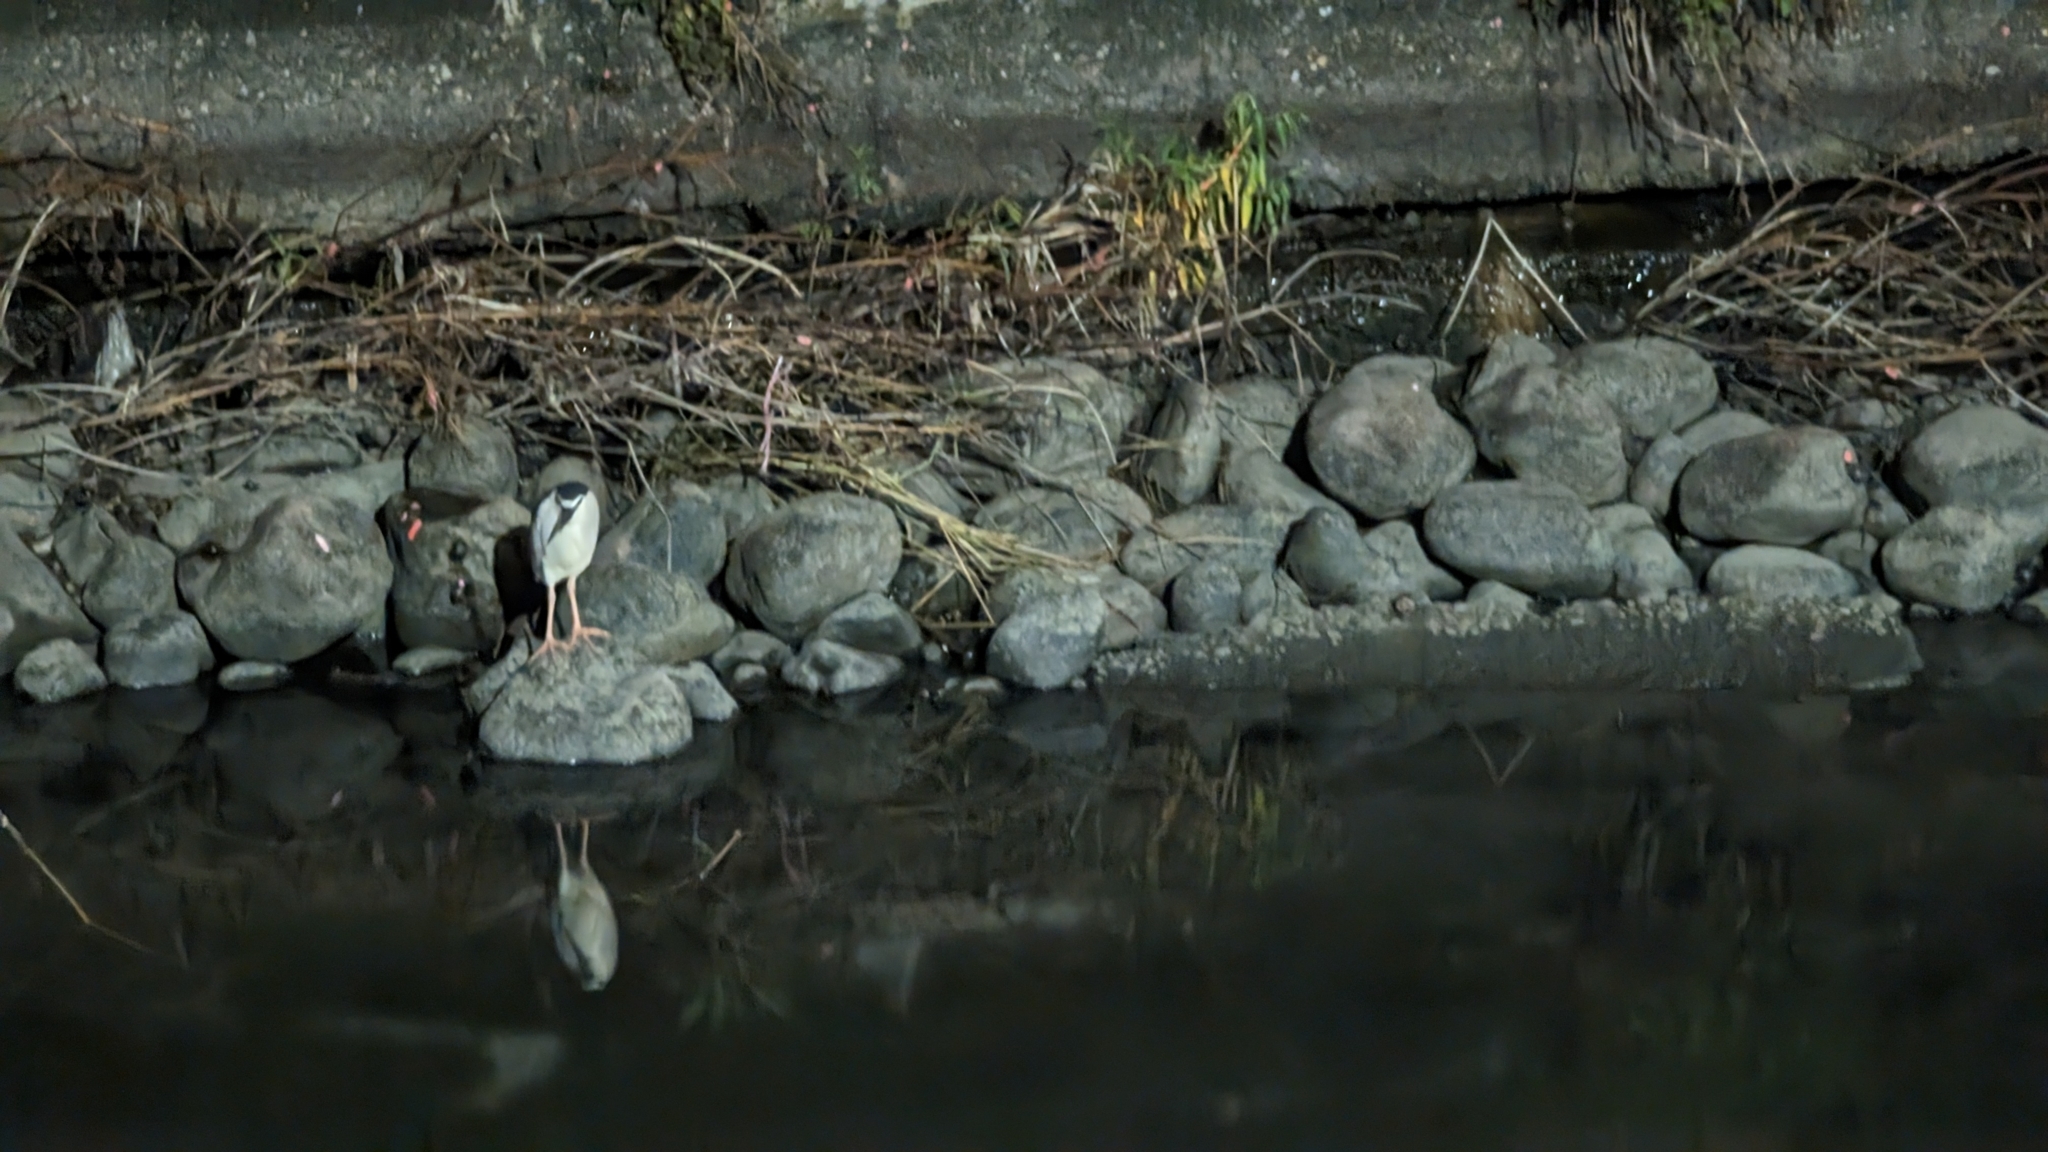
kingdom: Animalia
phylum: Chordata
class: Aves
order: Pelecaniformes
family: Ardeidae
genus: Nycticorax
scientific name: Nycticorax nycticorax
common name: Black-crowned night heron
